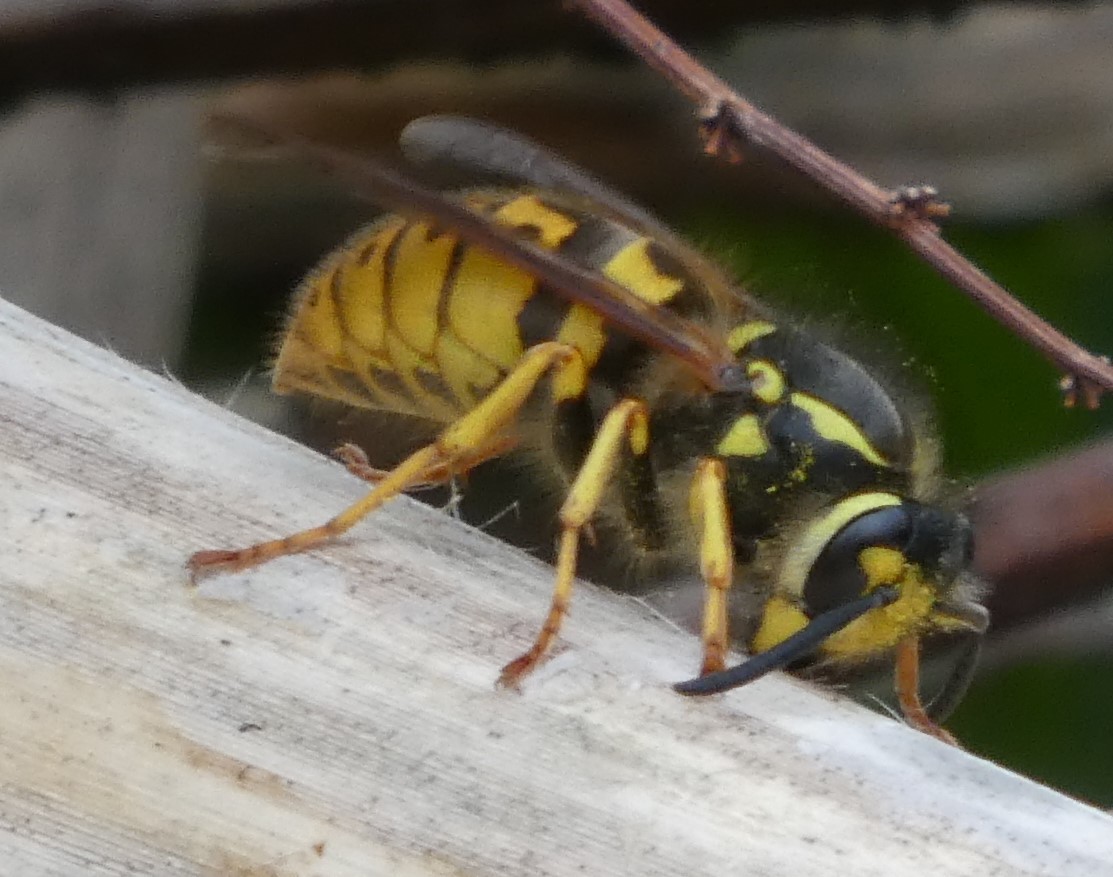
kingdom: Animalia
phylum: Arthropoda
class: Insecta
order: Hymenoptera
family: Vespidae
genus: Vespula
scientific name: Vespula germanica
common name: German wasp
